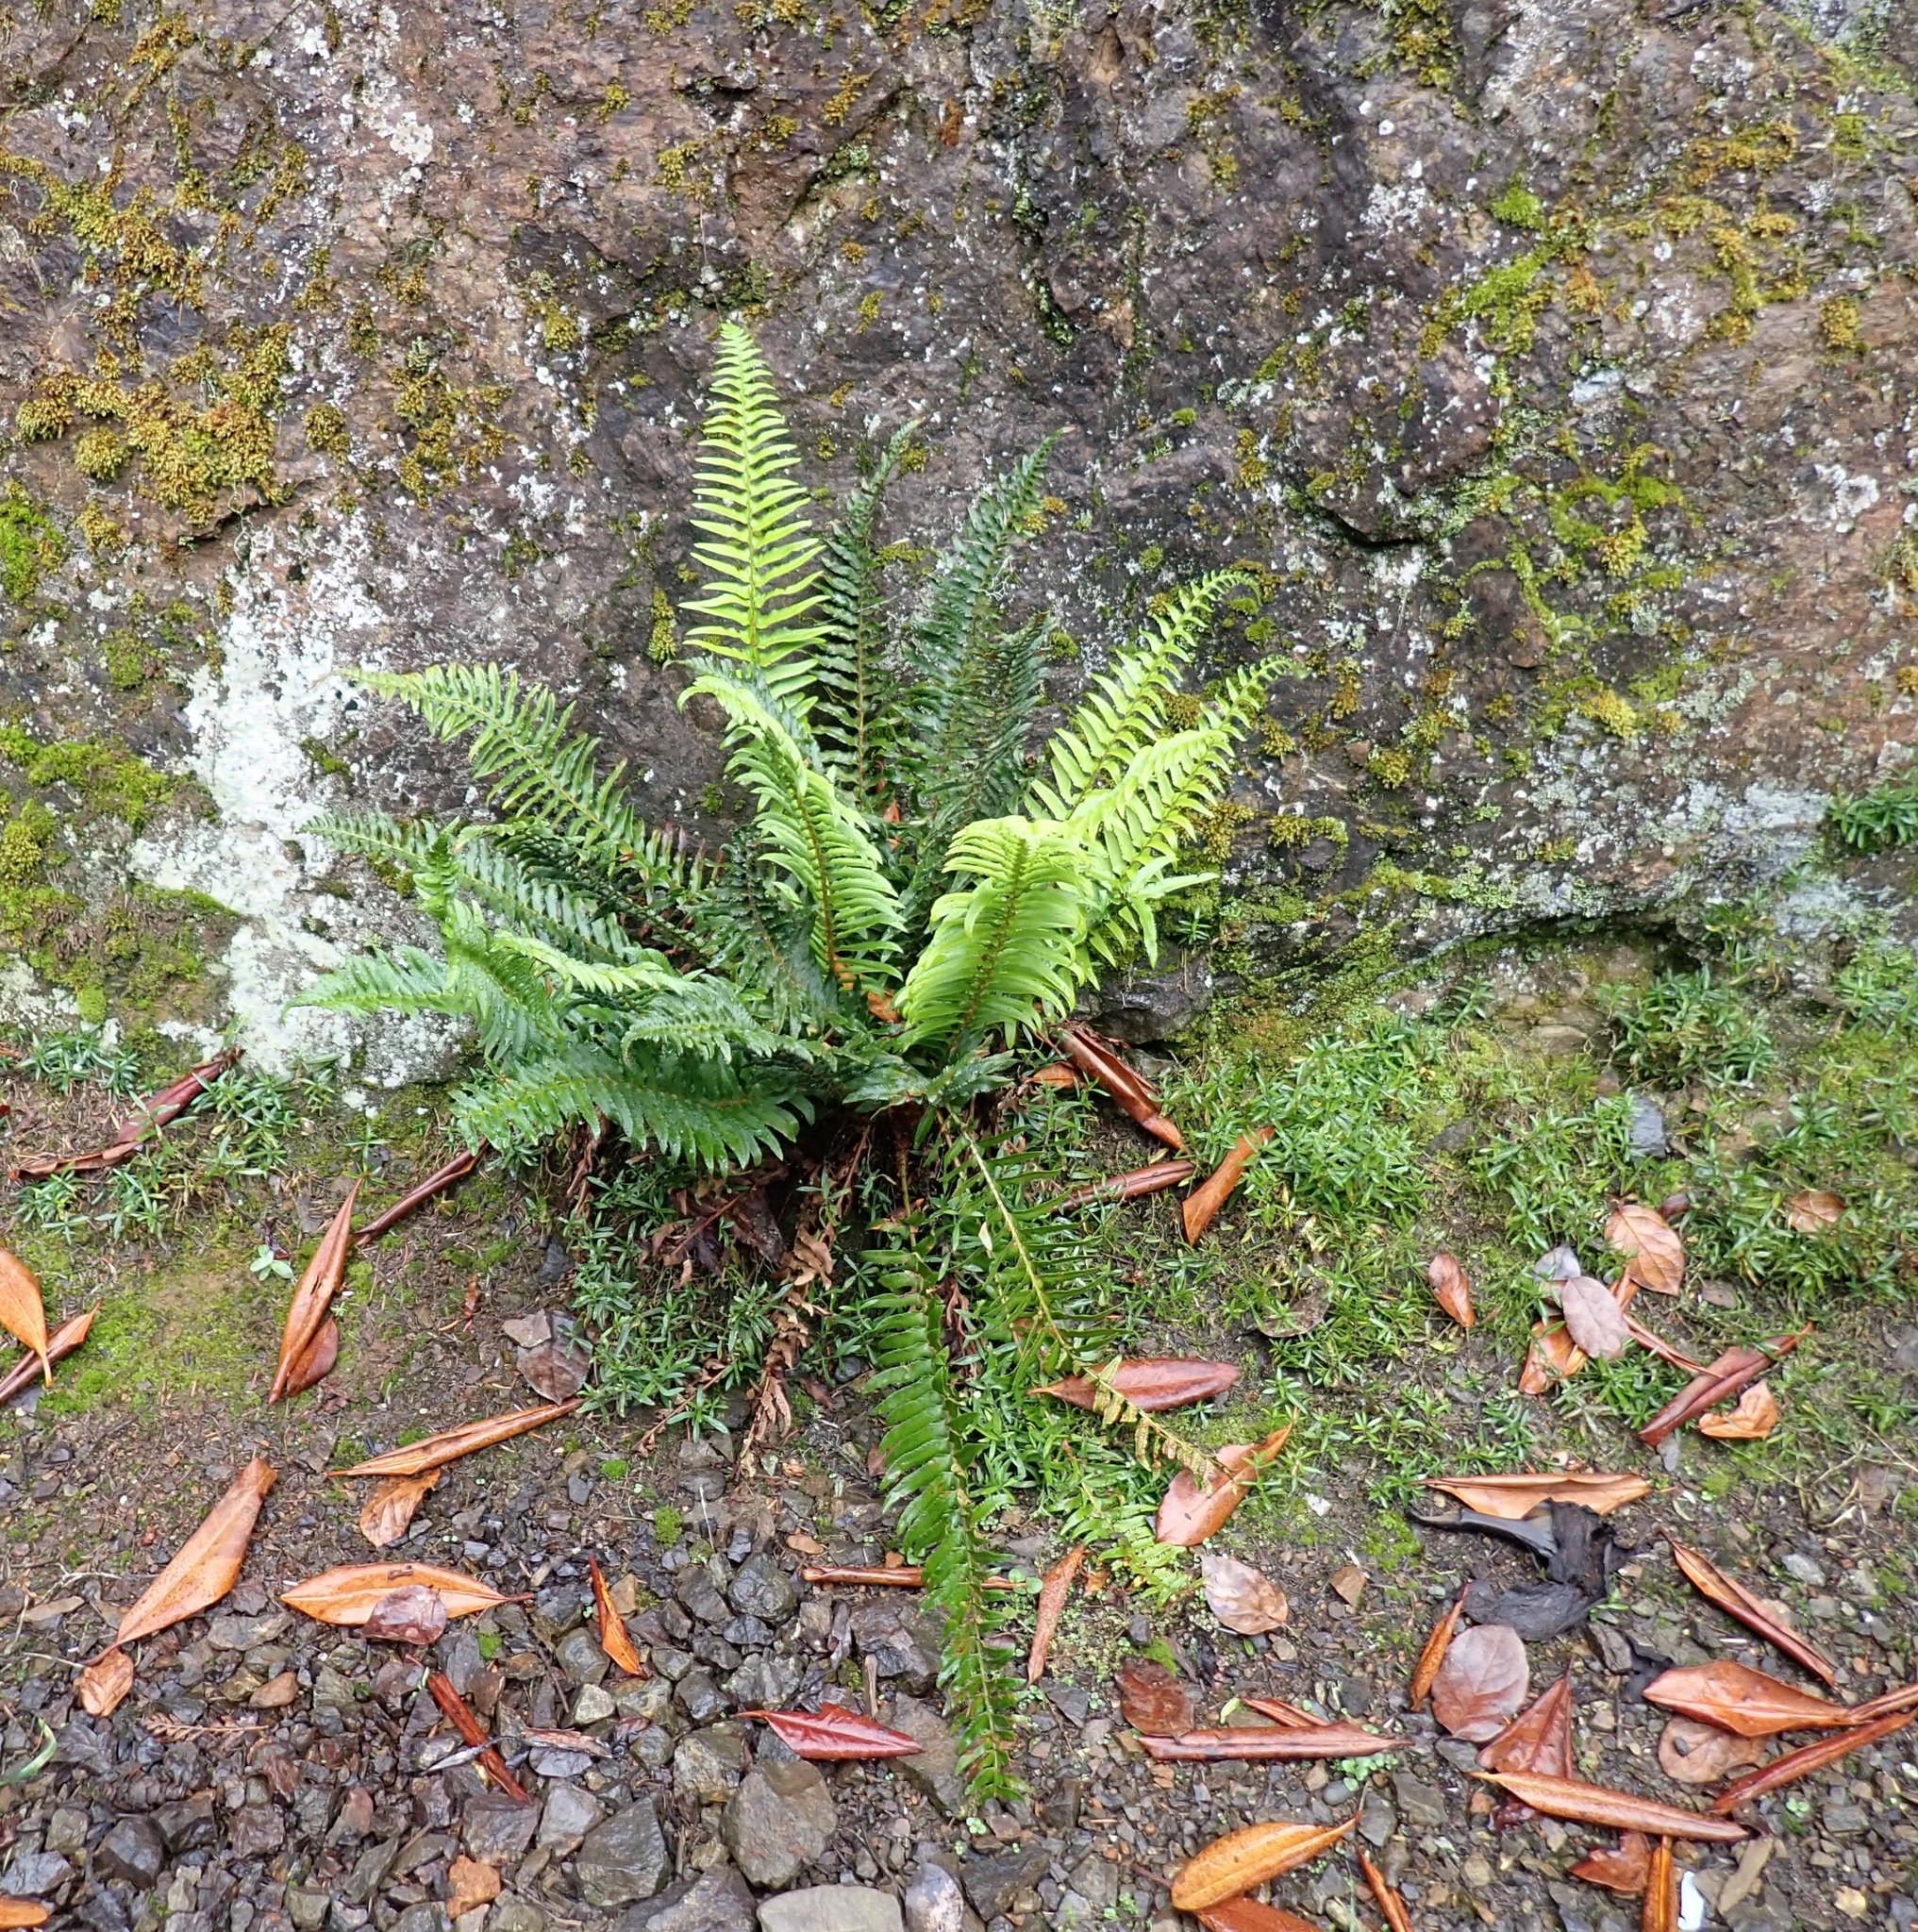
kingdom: Plantae
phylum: Tracheophyta
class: Polypodiopsida
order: Polypodiales
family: Dryopteridaceae
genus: Polystichum
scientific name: Polystichum munitum
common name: Western sword-fern
